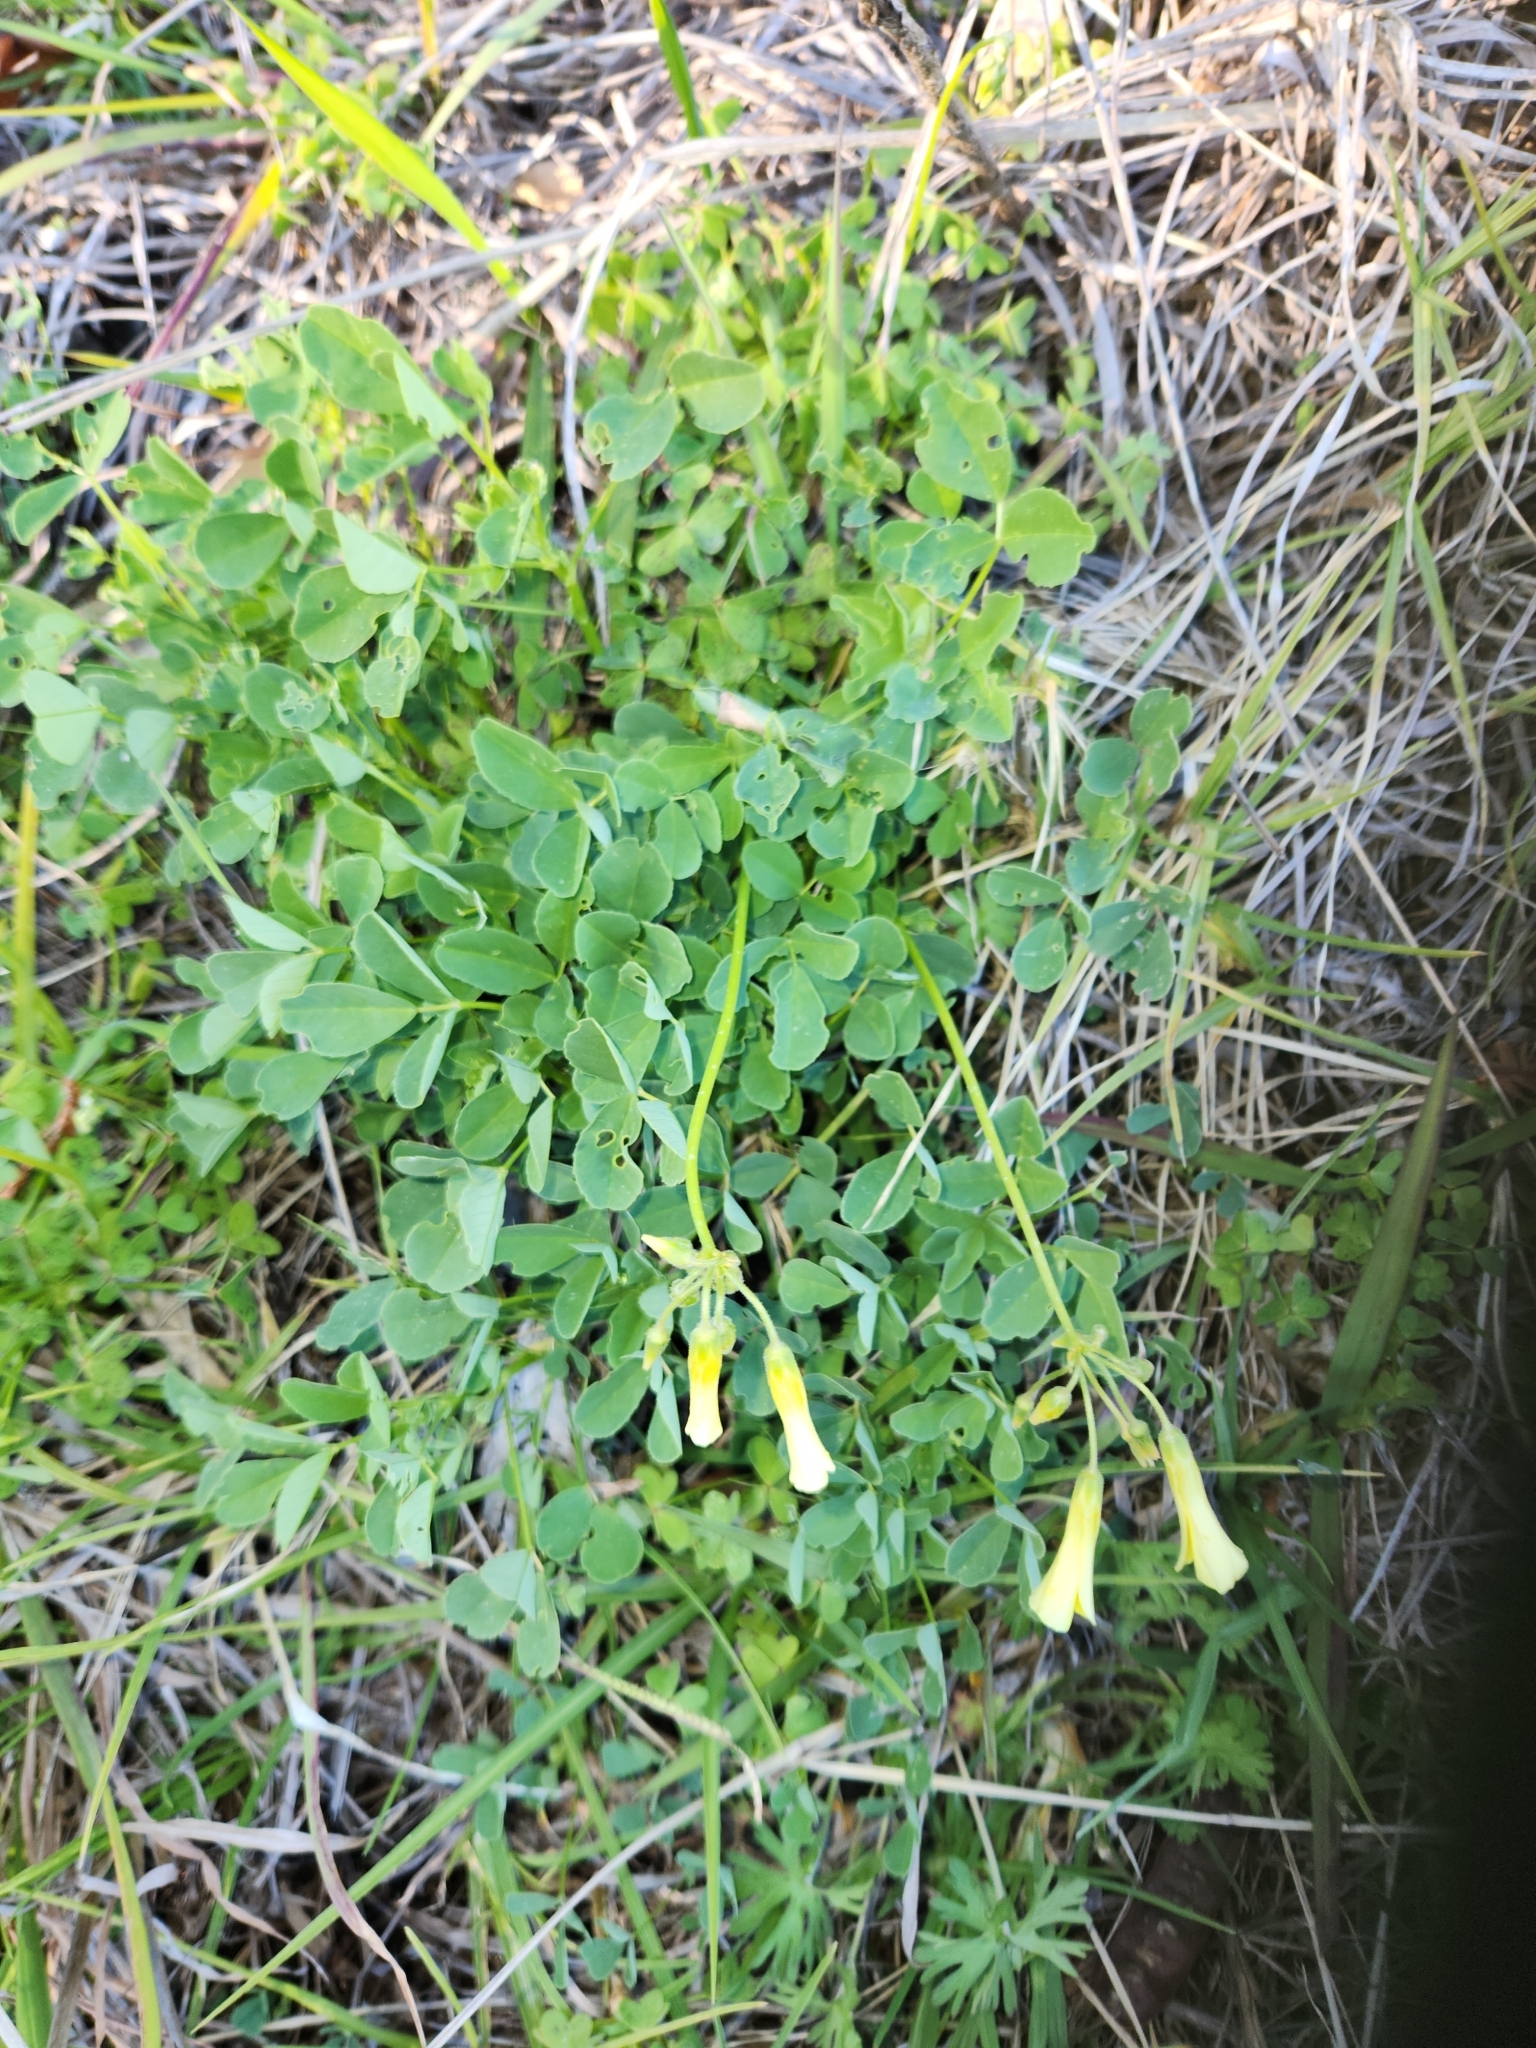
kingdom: Plantae
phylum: Tracheophyta
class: Magnoliopsida
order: Oxalidales
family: Oxalidaceae
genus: Oxalis
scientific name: Oxalis pes-caprae
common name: Bermuda-buttercup
